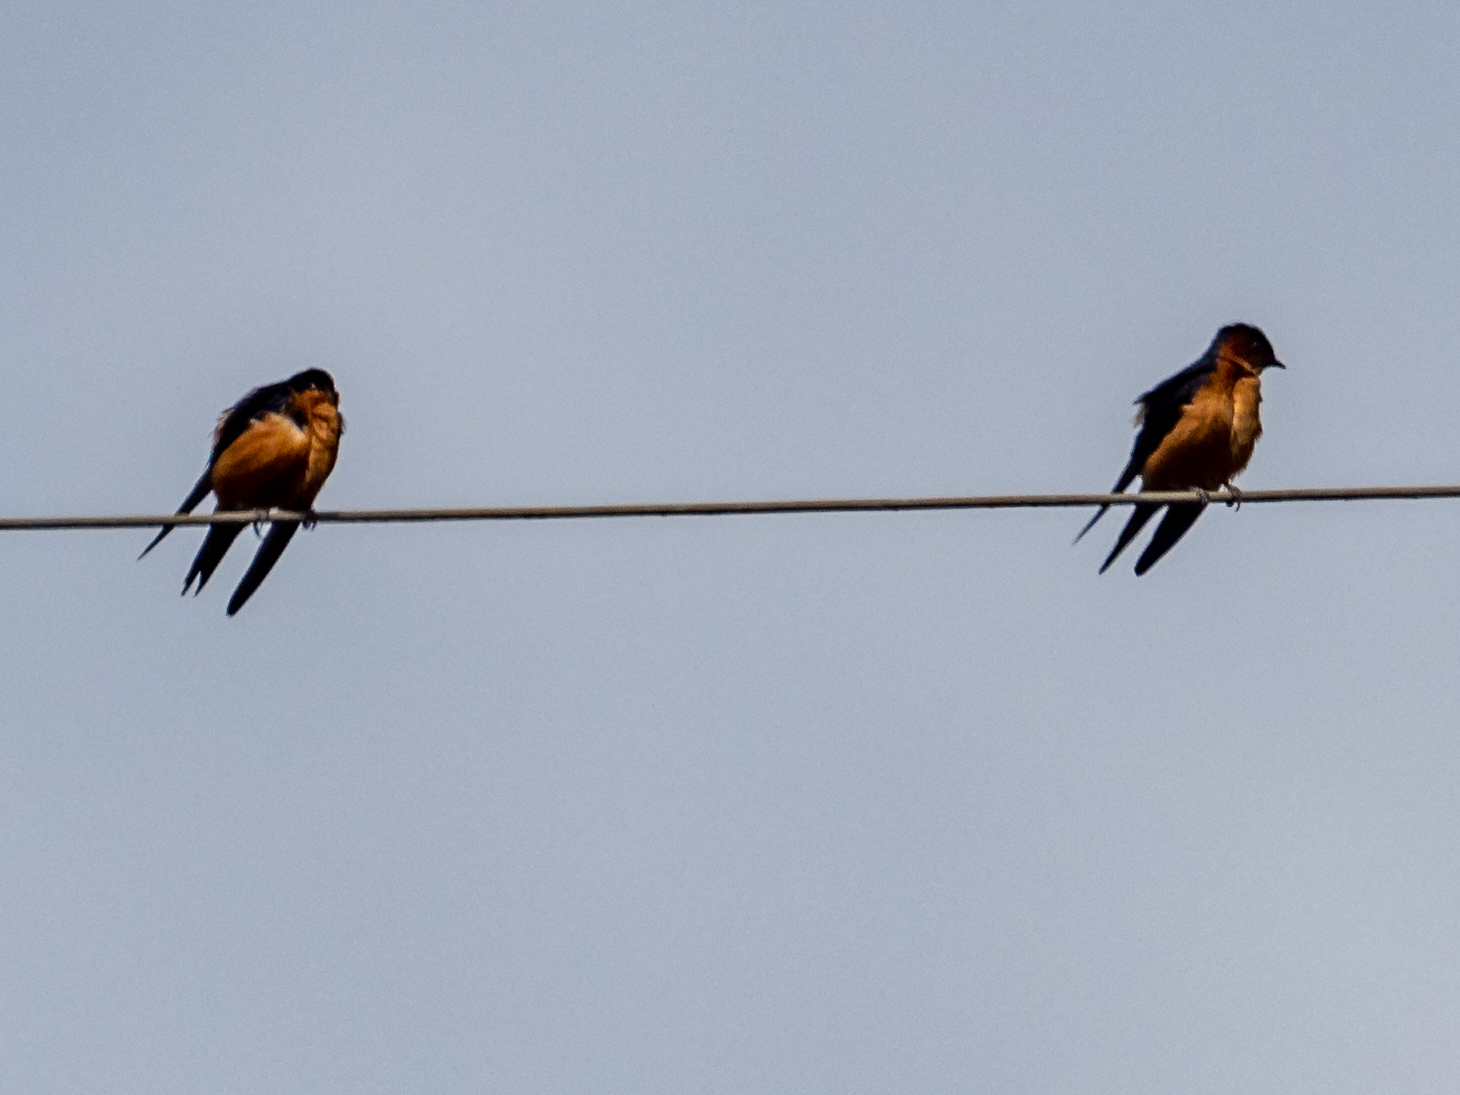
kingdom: Animalia
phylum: Chordata
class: Aves
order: Passeriformes
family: Hirundinidae
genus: Cecropis
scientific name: Cecropis hyperythra
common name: Sri lanka swallow
